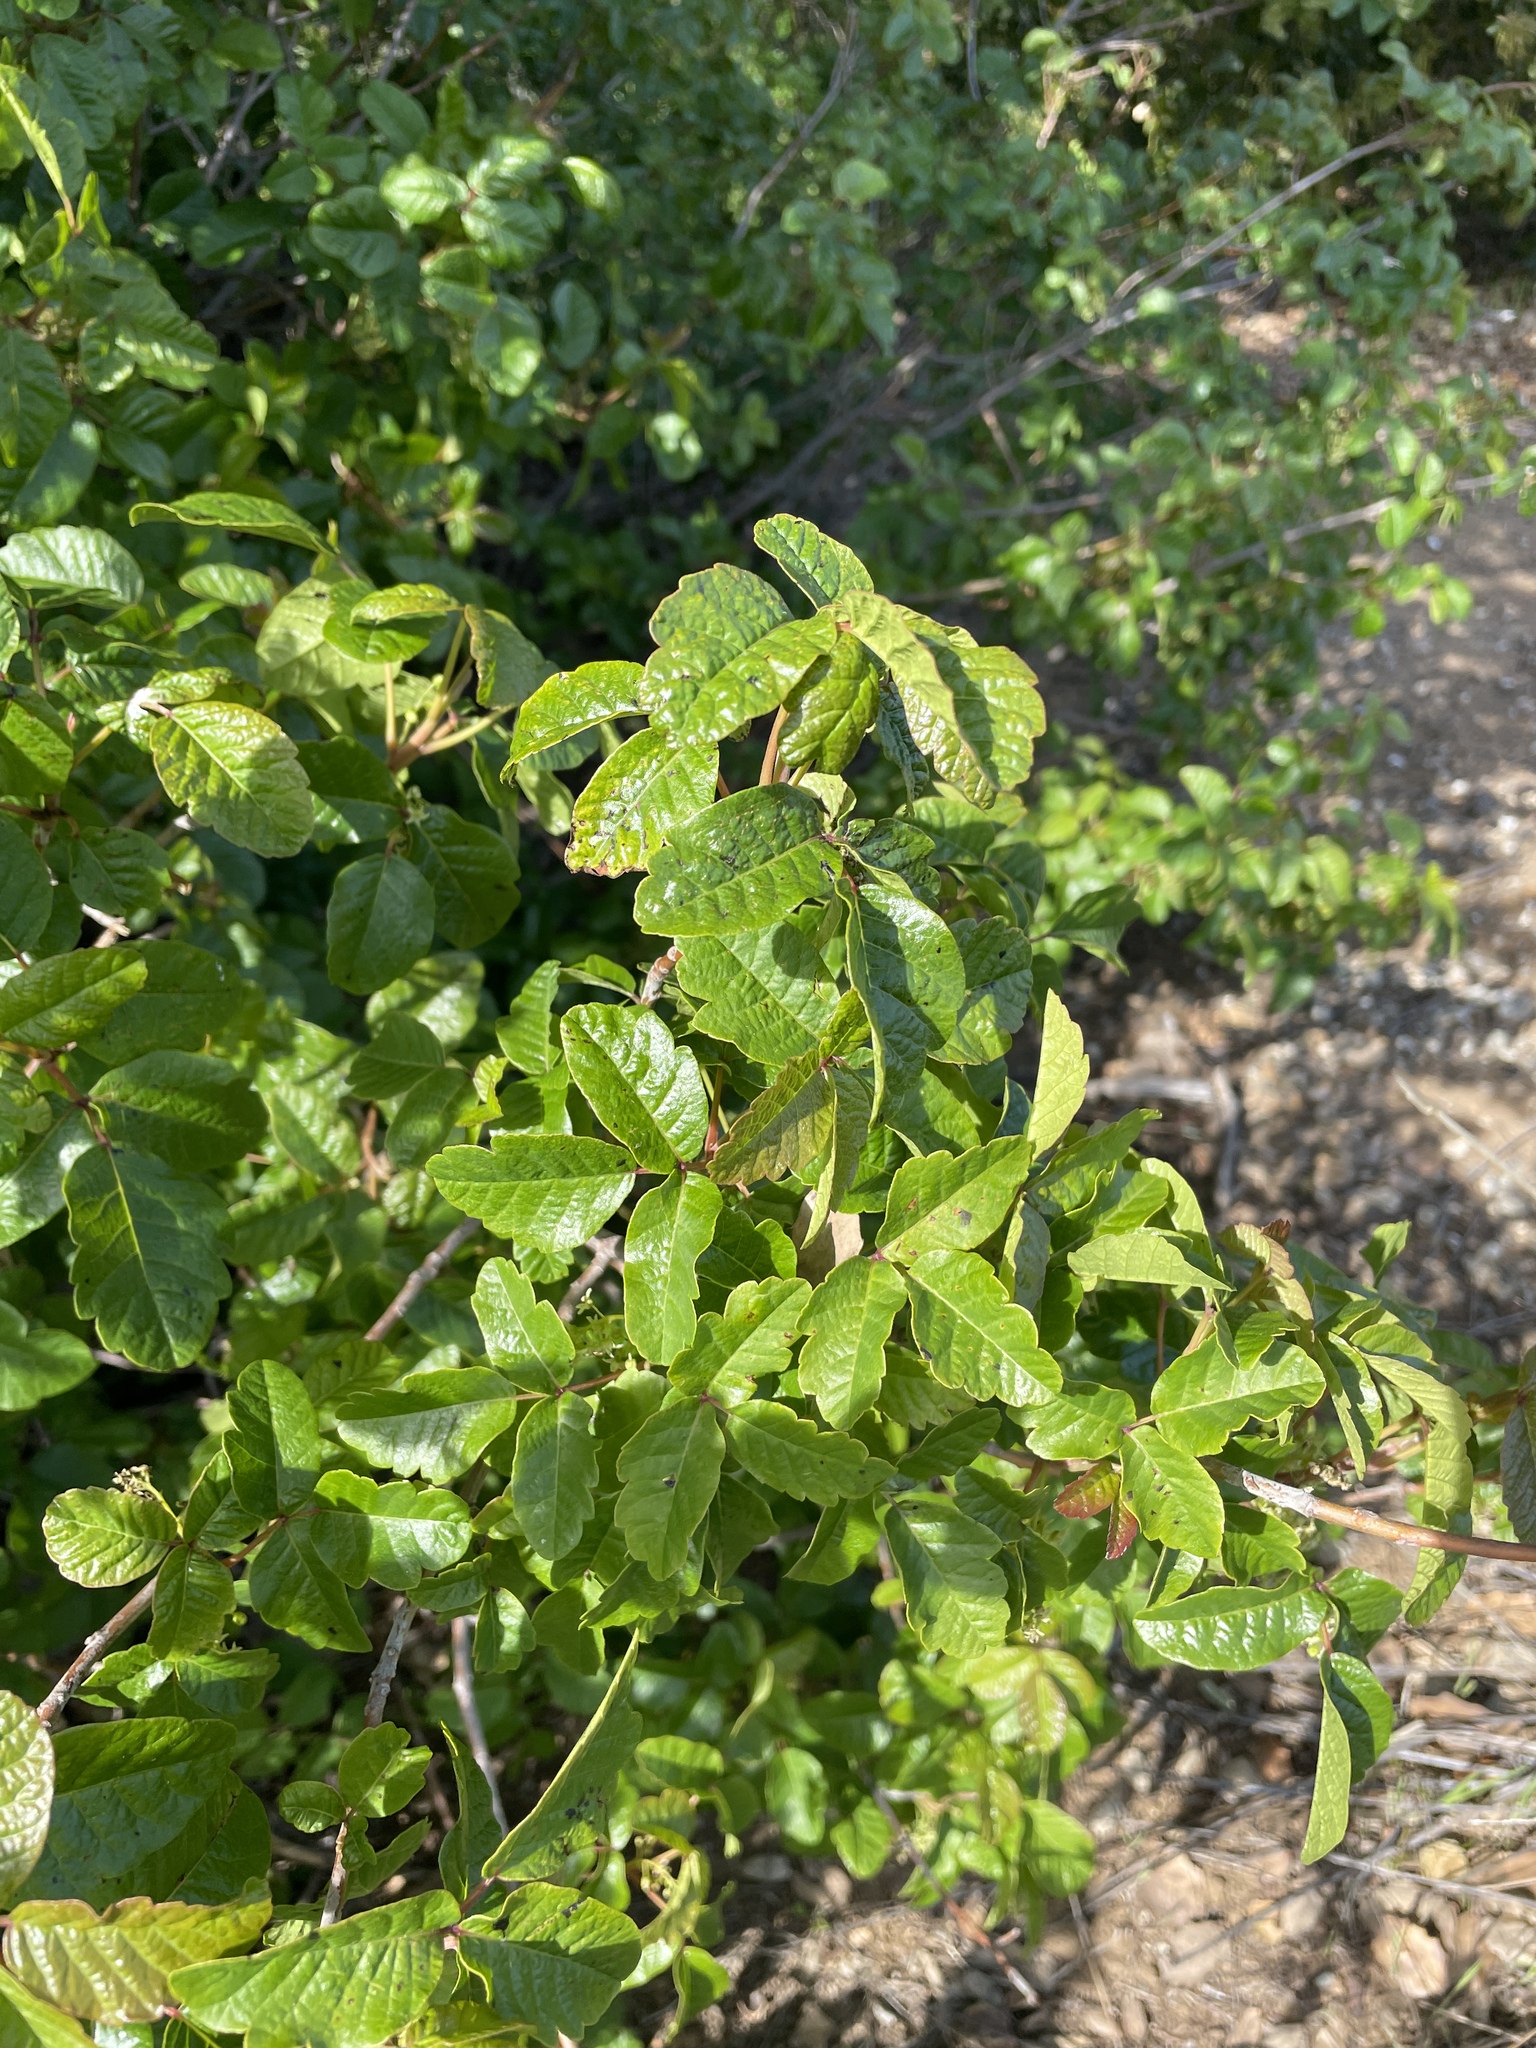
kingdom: Plantae
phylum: Tracheophyta
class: Magnoliopsida
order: Sapindales
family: Anacardiaceae
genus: Toxicodendron
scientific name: Toxicodendron diversilobum
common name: Pacific poison-oak
